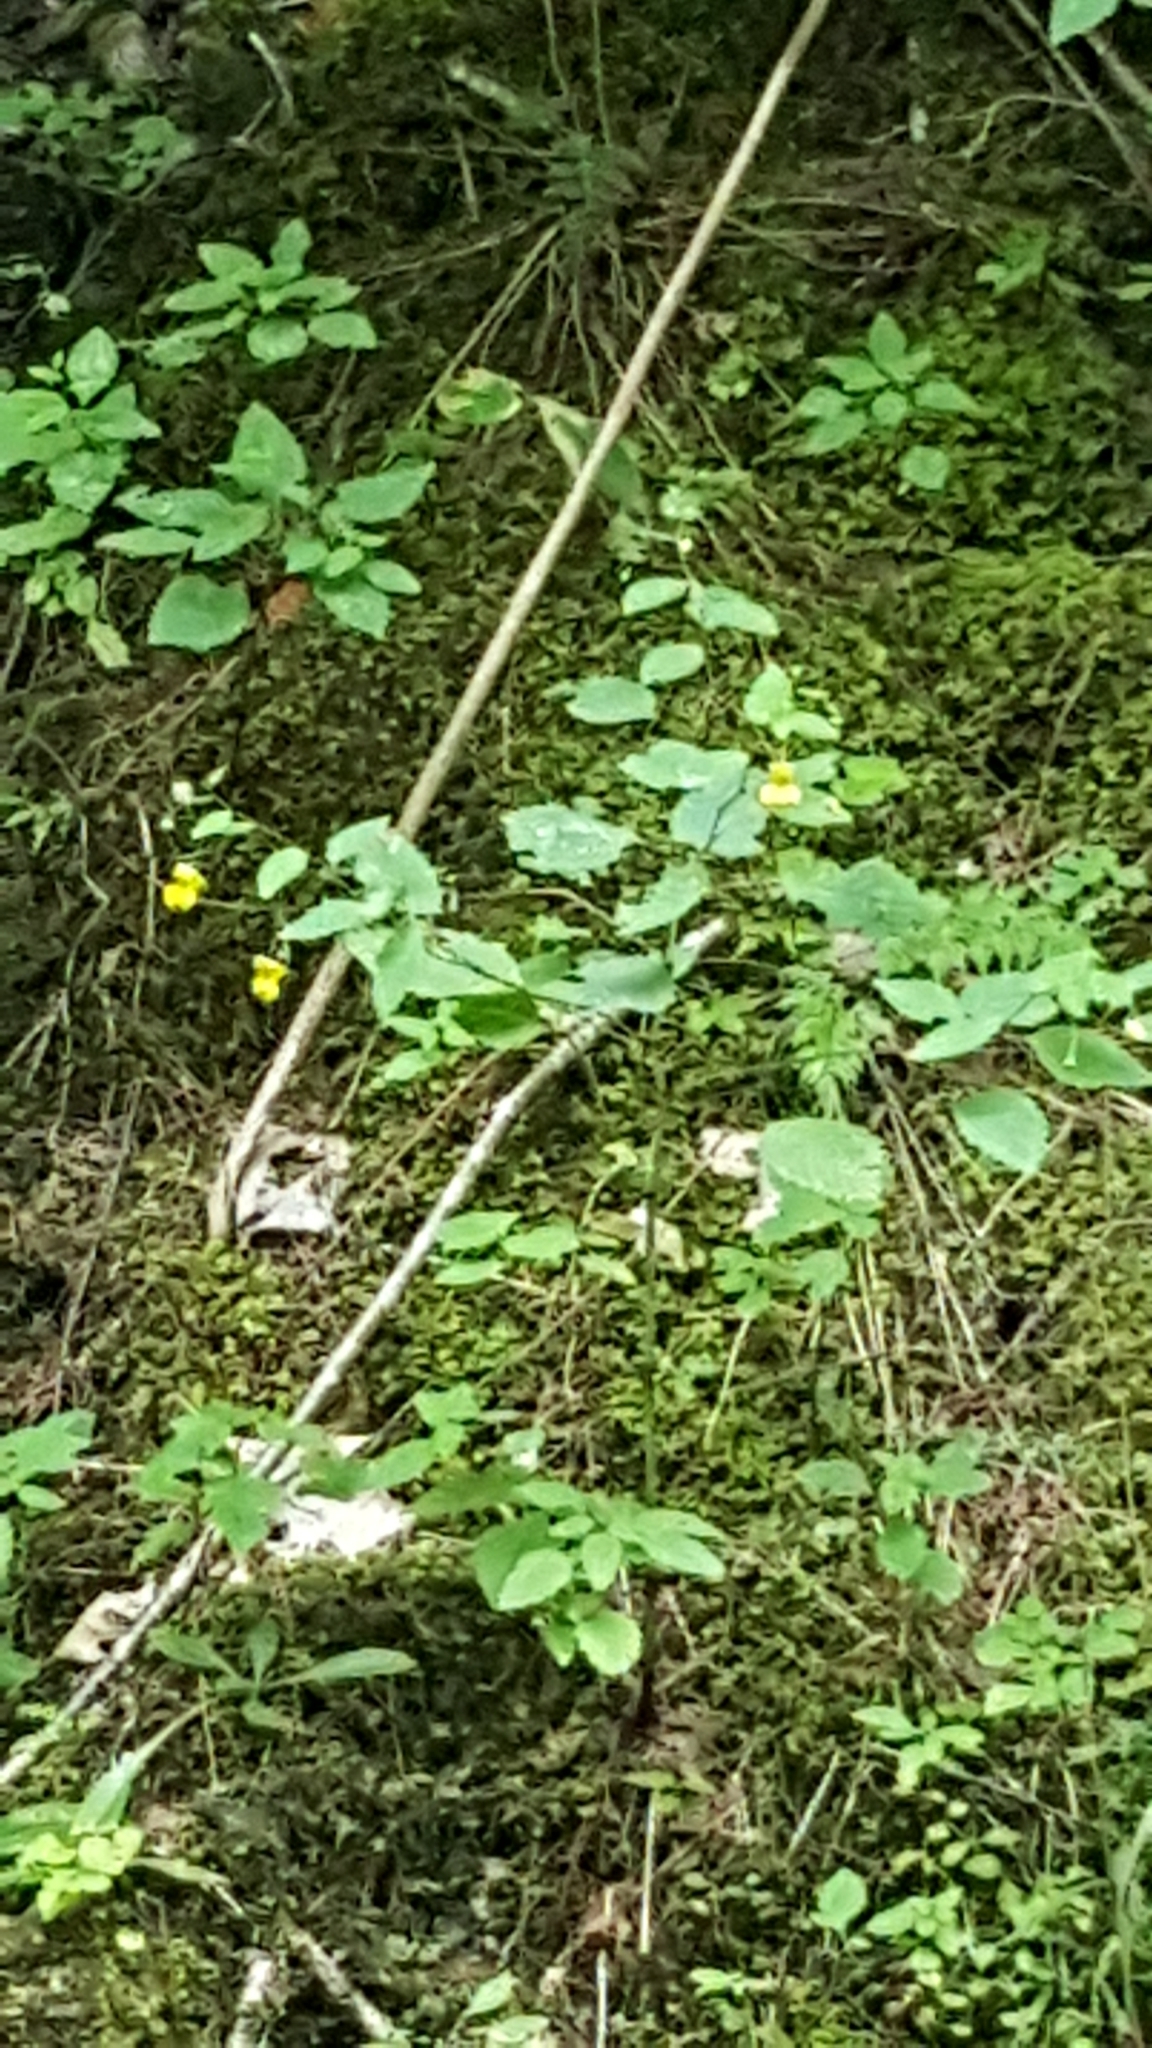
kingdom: Plantae
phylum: Tracheophyta
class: Magnoliopsida
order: Ericales
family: Balsaminaceae
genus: Impatiens
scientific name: Impatiens pallida
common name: Pale snapweed
